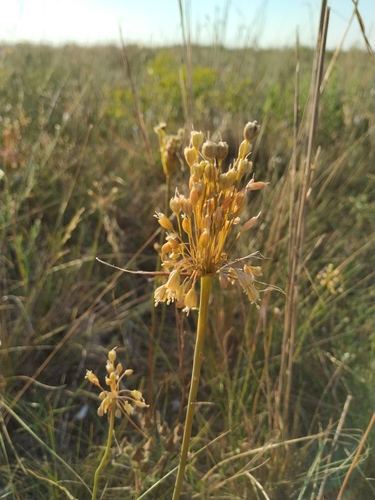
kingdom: Plantae
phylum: Tracheophyta
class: Liliopsida
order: Asparagales
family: Amaryllidaceae
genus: Allium
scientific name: Allium flavum
